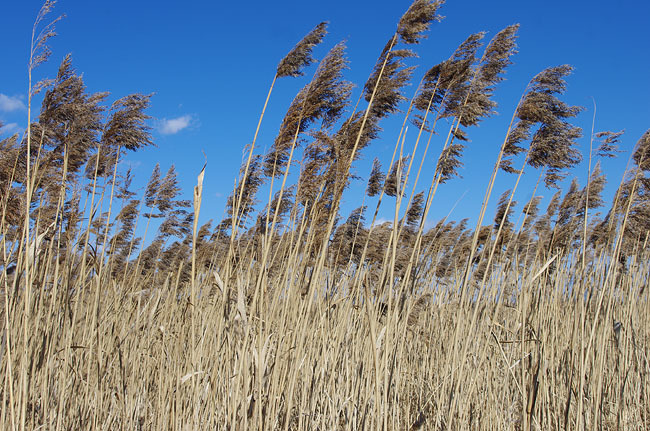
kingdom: Plantae
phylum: Tracheophyta
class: Liliopsida
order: Poales
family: Poaceae
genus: Phragmites
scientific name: Phragmites australis
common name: Common reed
